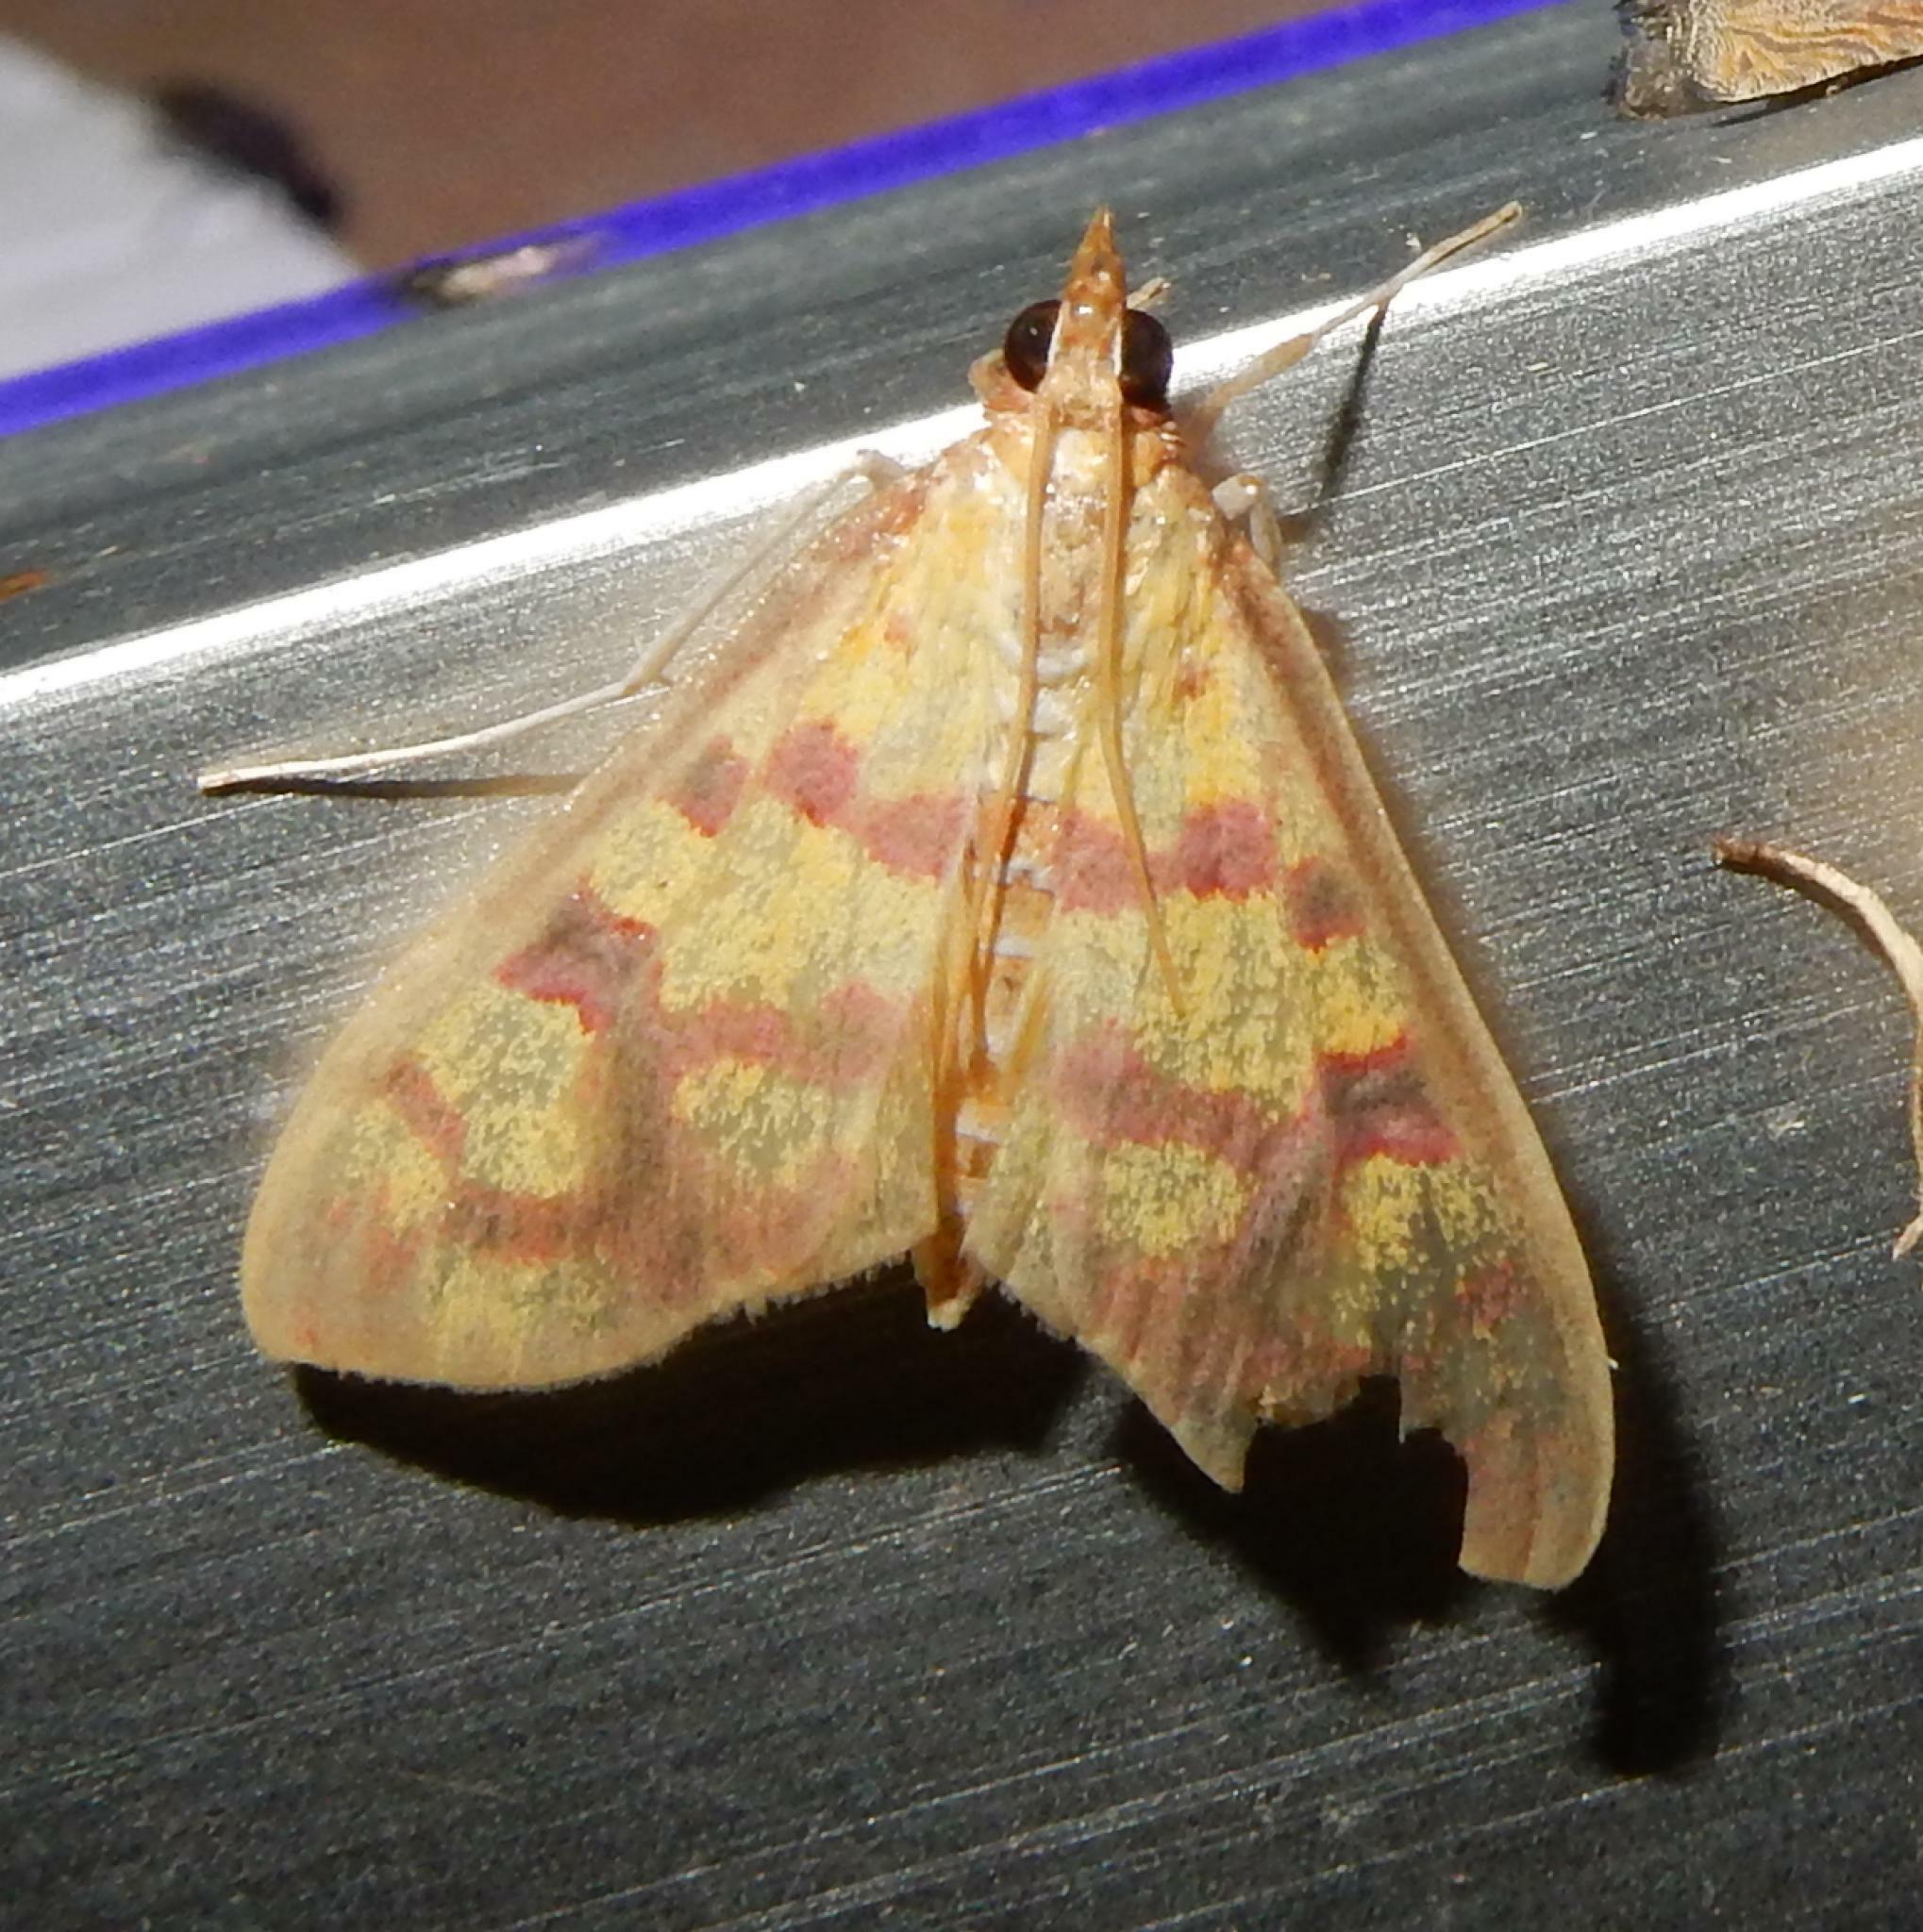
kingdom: Animalia
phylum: Arthropoda
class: Insecta
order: Lepidoptera
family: Crambidae
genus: Ischnurges
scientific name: Ischnurges Stenochora lancinalis
